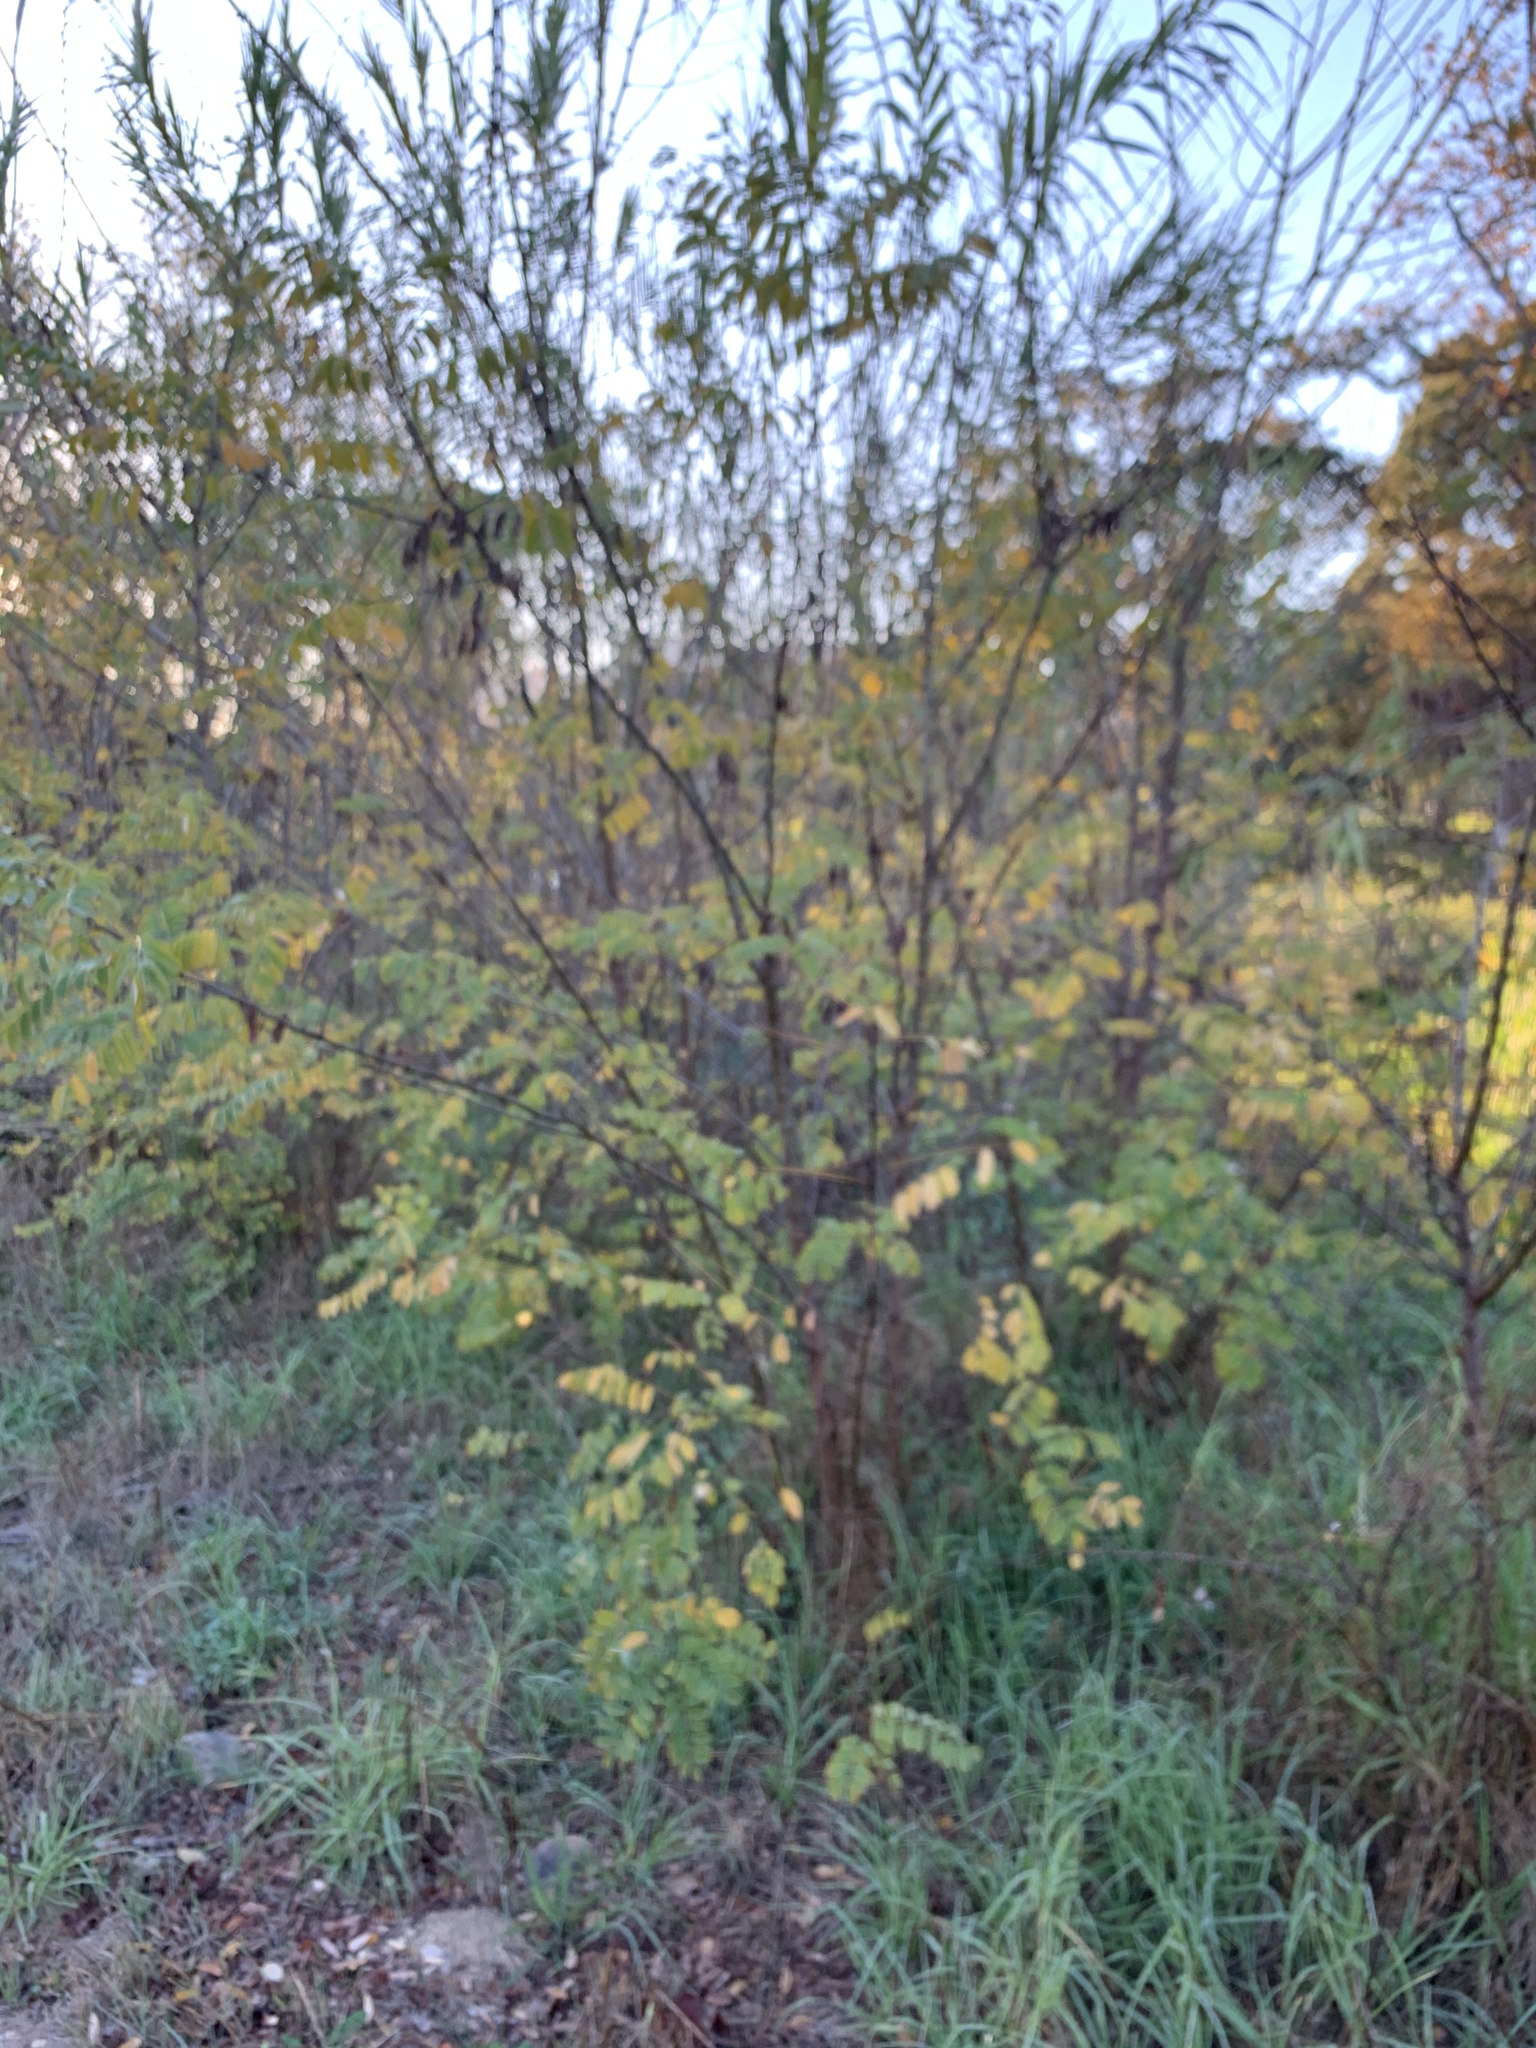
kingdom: Plantae
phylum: Tracheophyta
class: Magnoliopsida
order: Fabales
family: Fabaceae
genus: Robinia
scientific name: Robinia pseudoacacia
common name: Black locust
